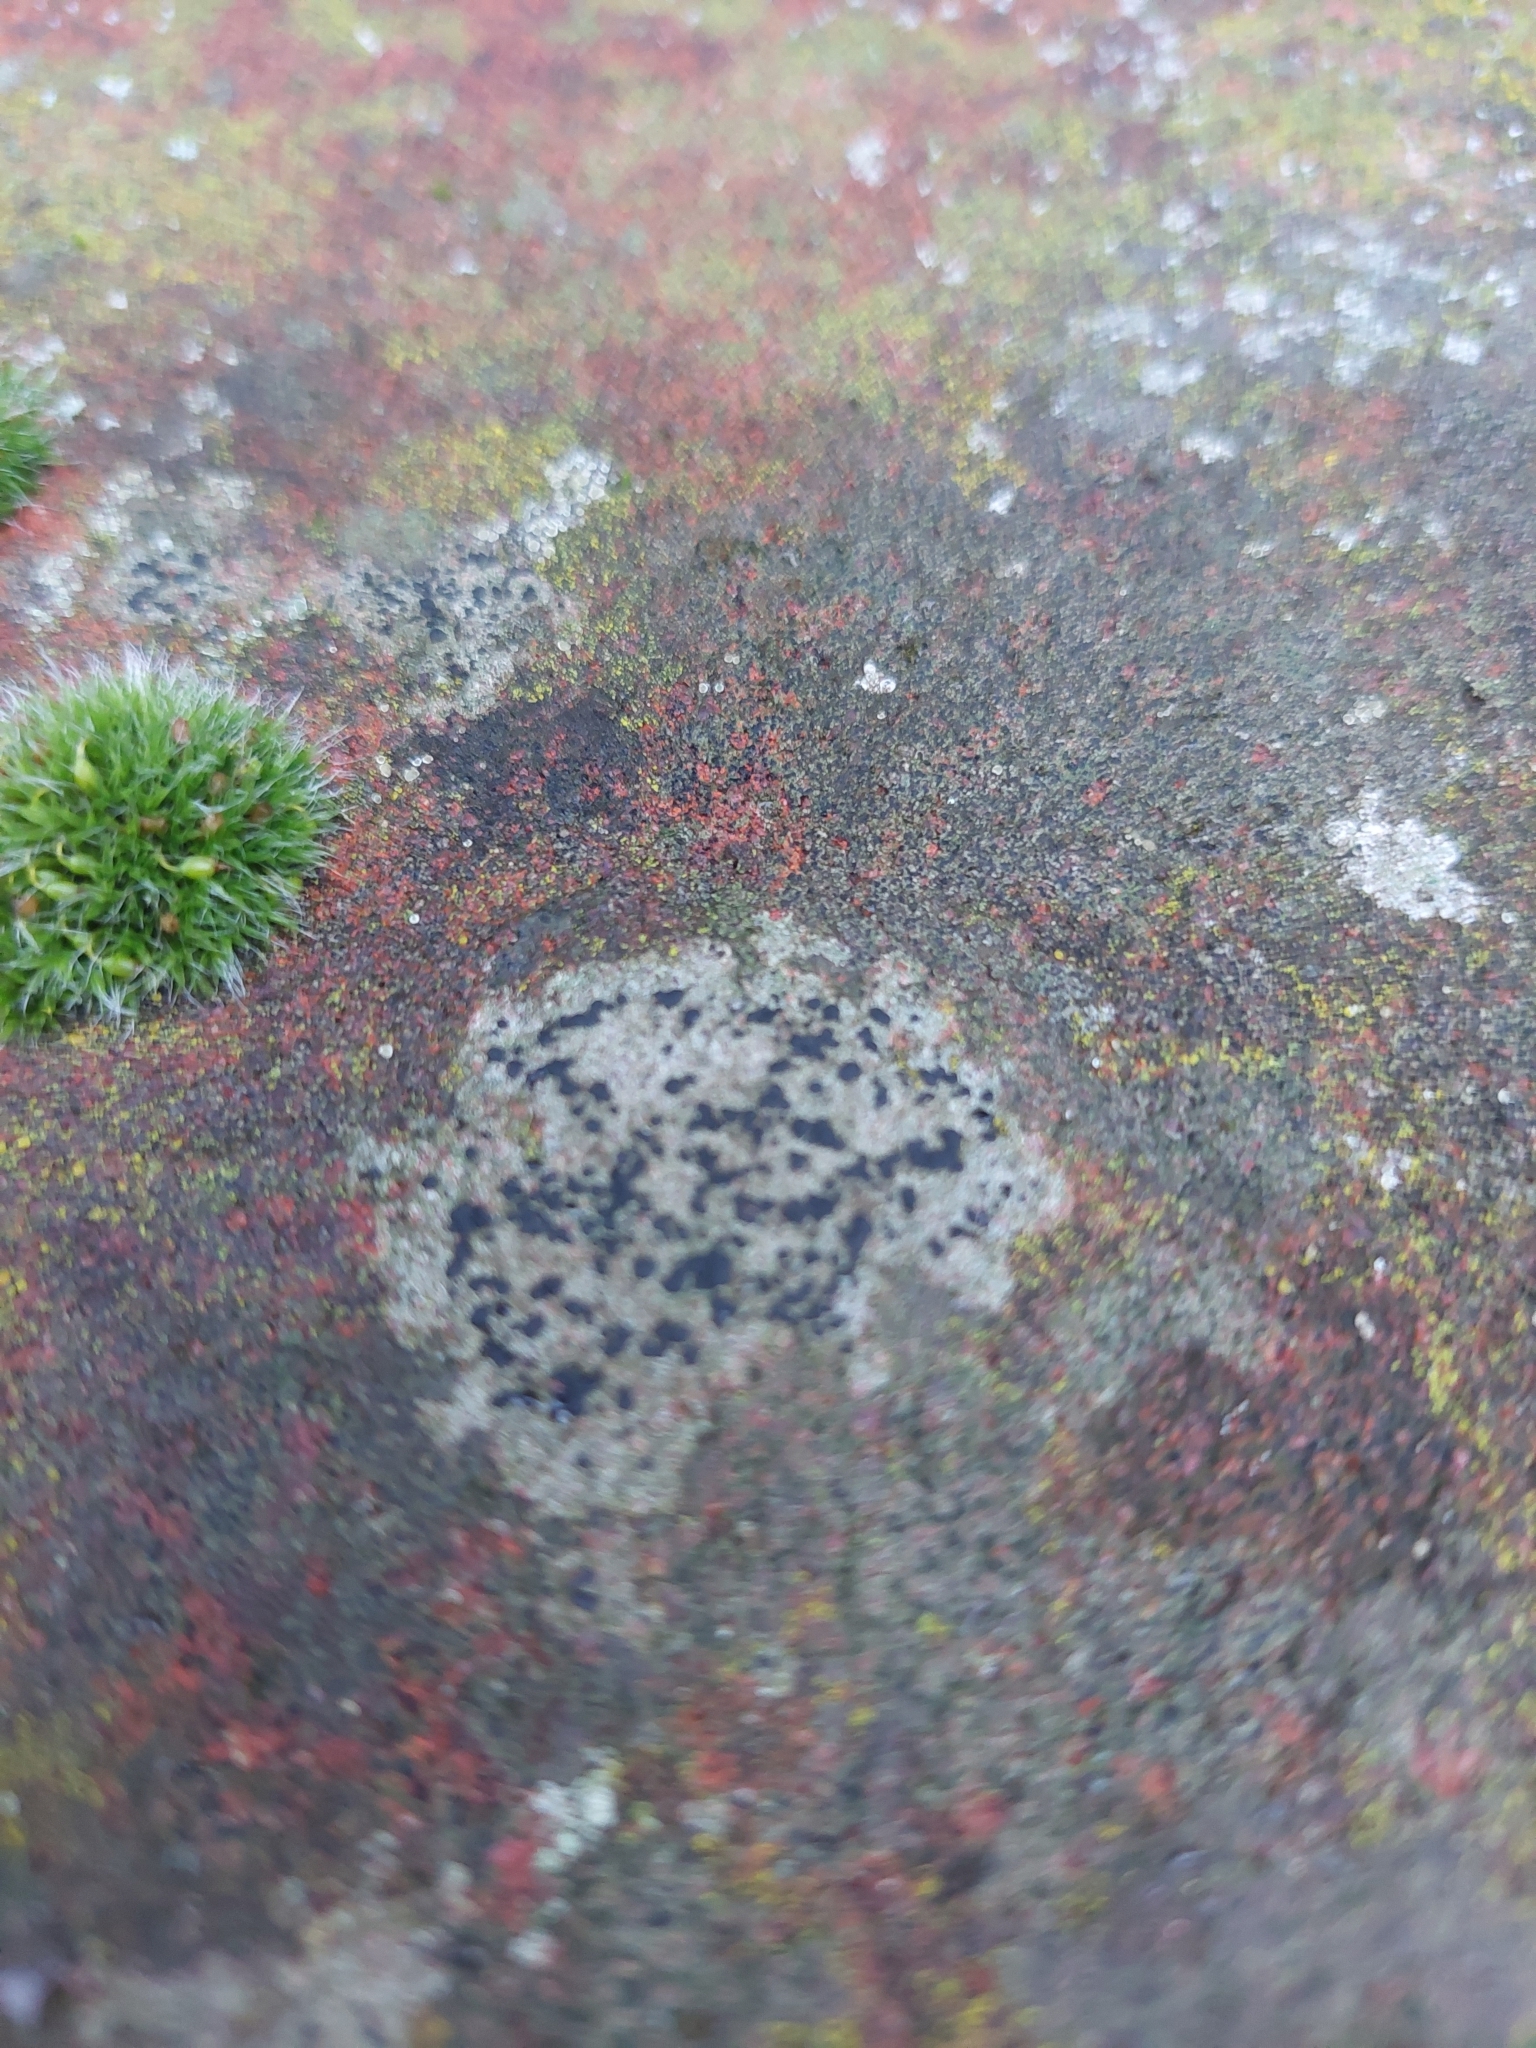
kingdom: Fungi
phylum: Ascomycota
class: Lecanoromycetes
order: Lecanorales
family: Lecanoraceae
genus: Lecidella
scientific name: Lecidella stigmatea
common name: Limestone disc lichen
